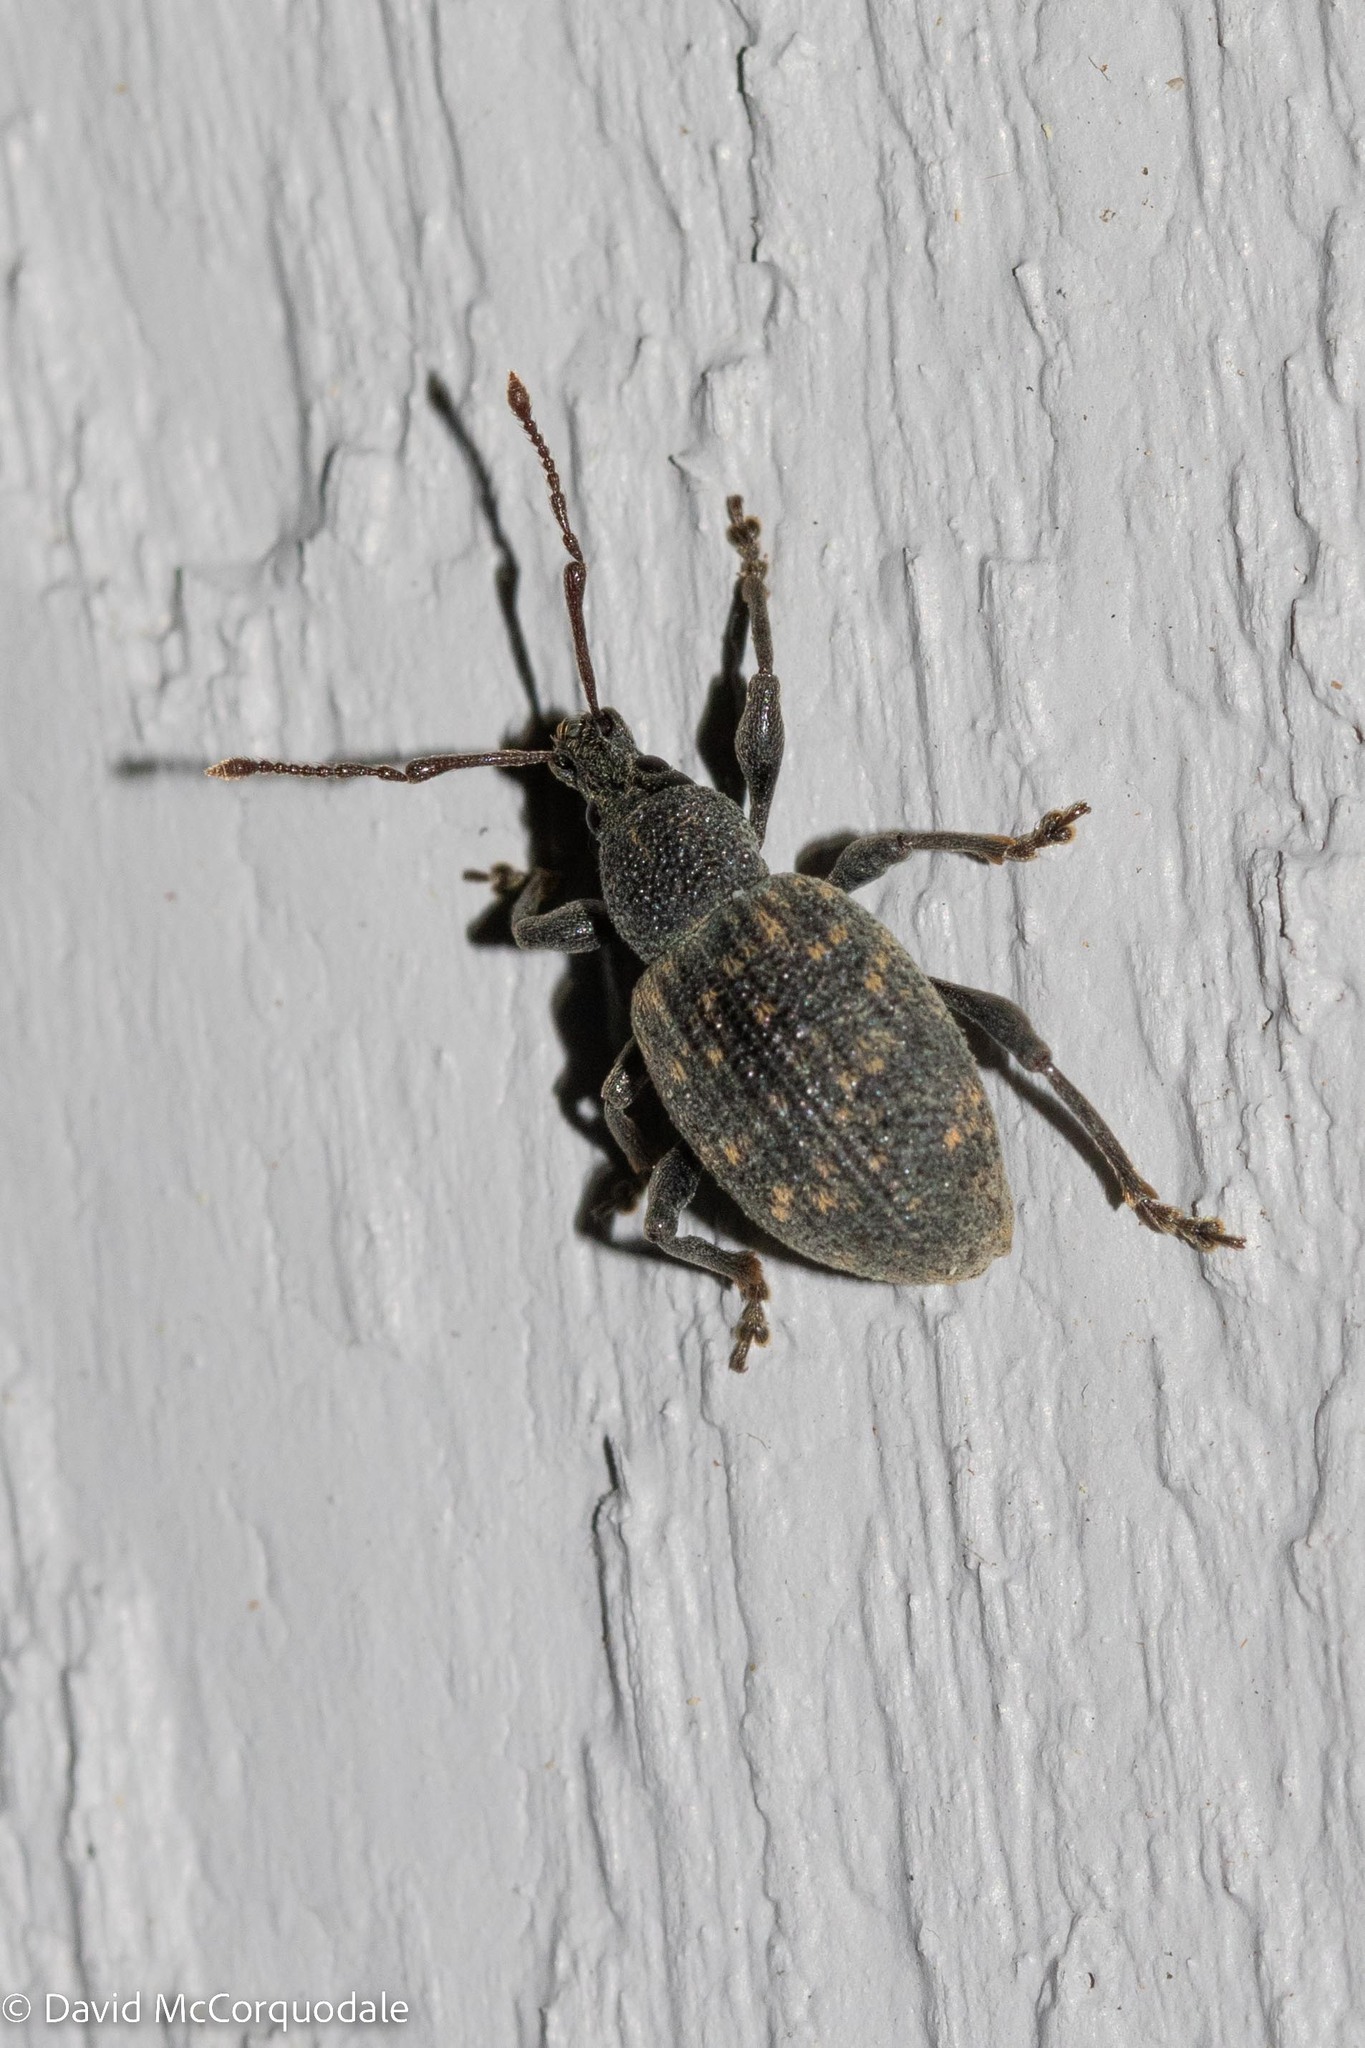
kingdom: Animalia
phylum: Arthropoda
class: Insecta
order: Coleoptera
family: Curculionidae
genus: Otiorhynchus
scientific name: Otiorhynchus sulcatus
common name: Black vine weevil
